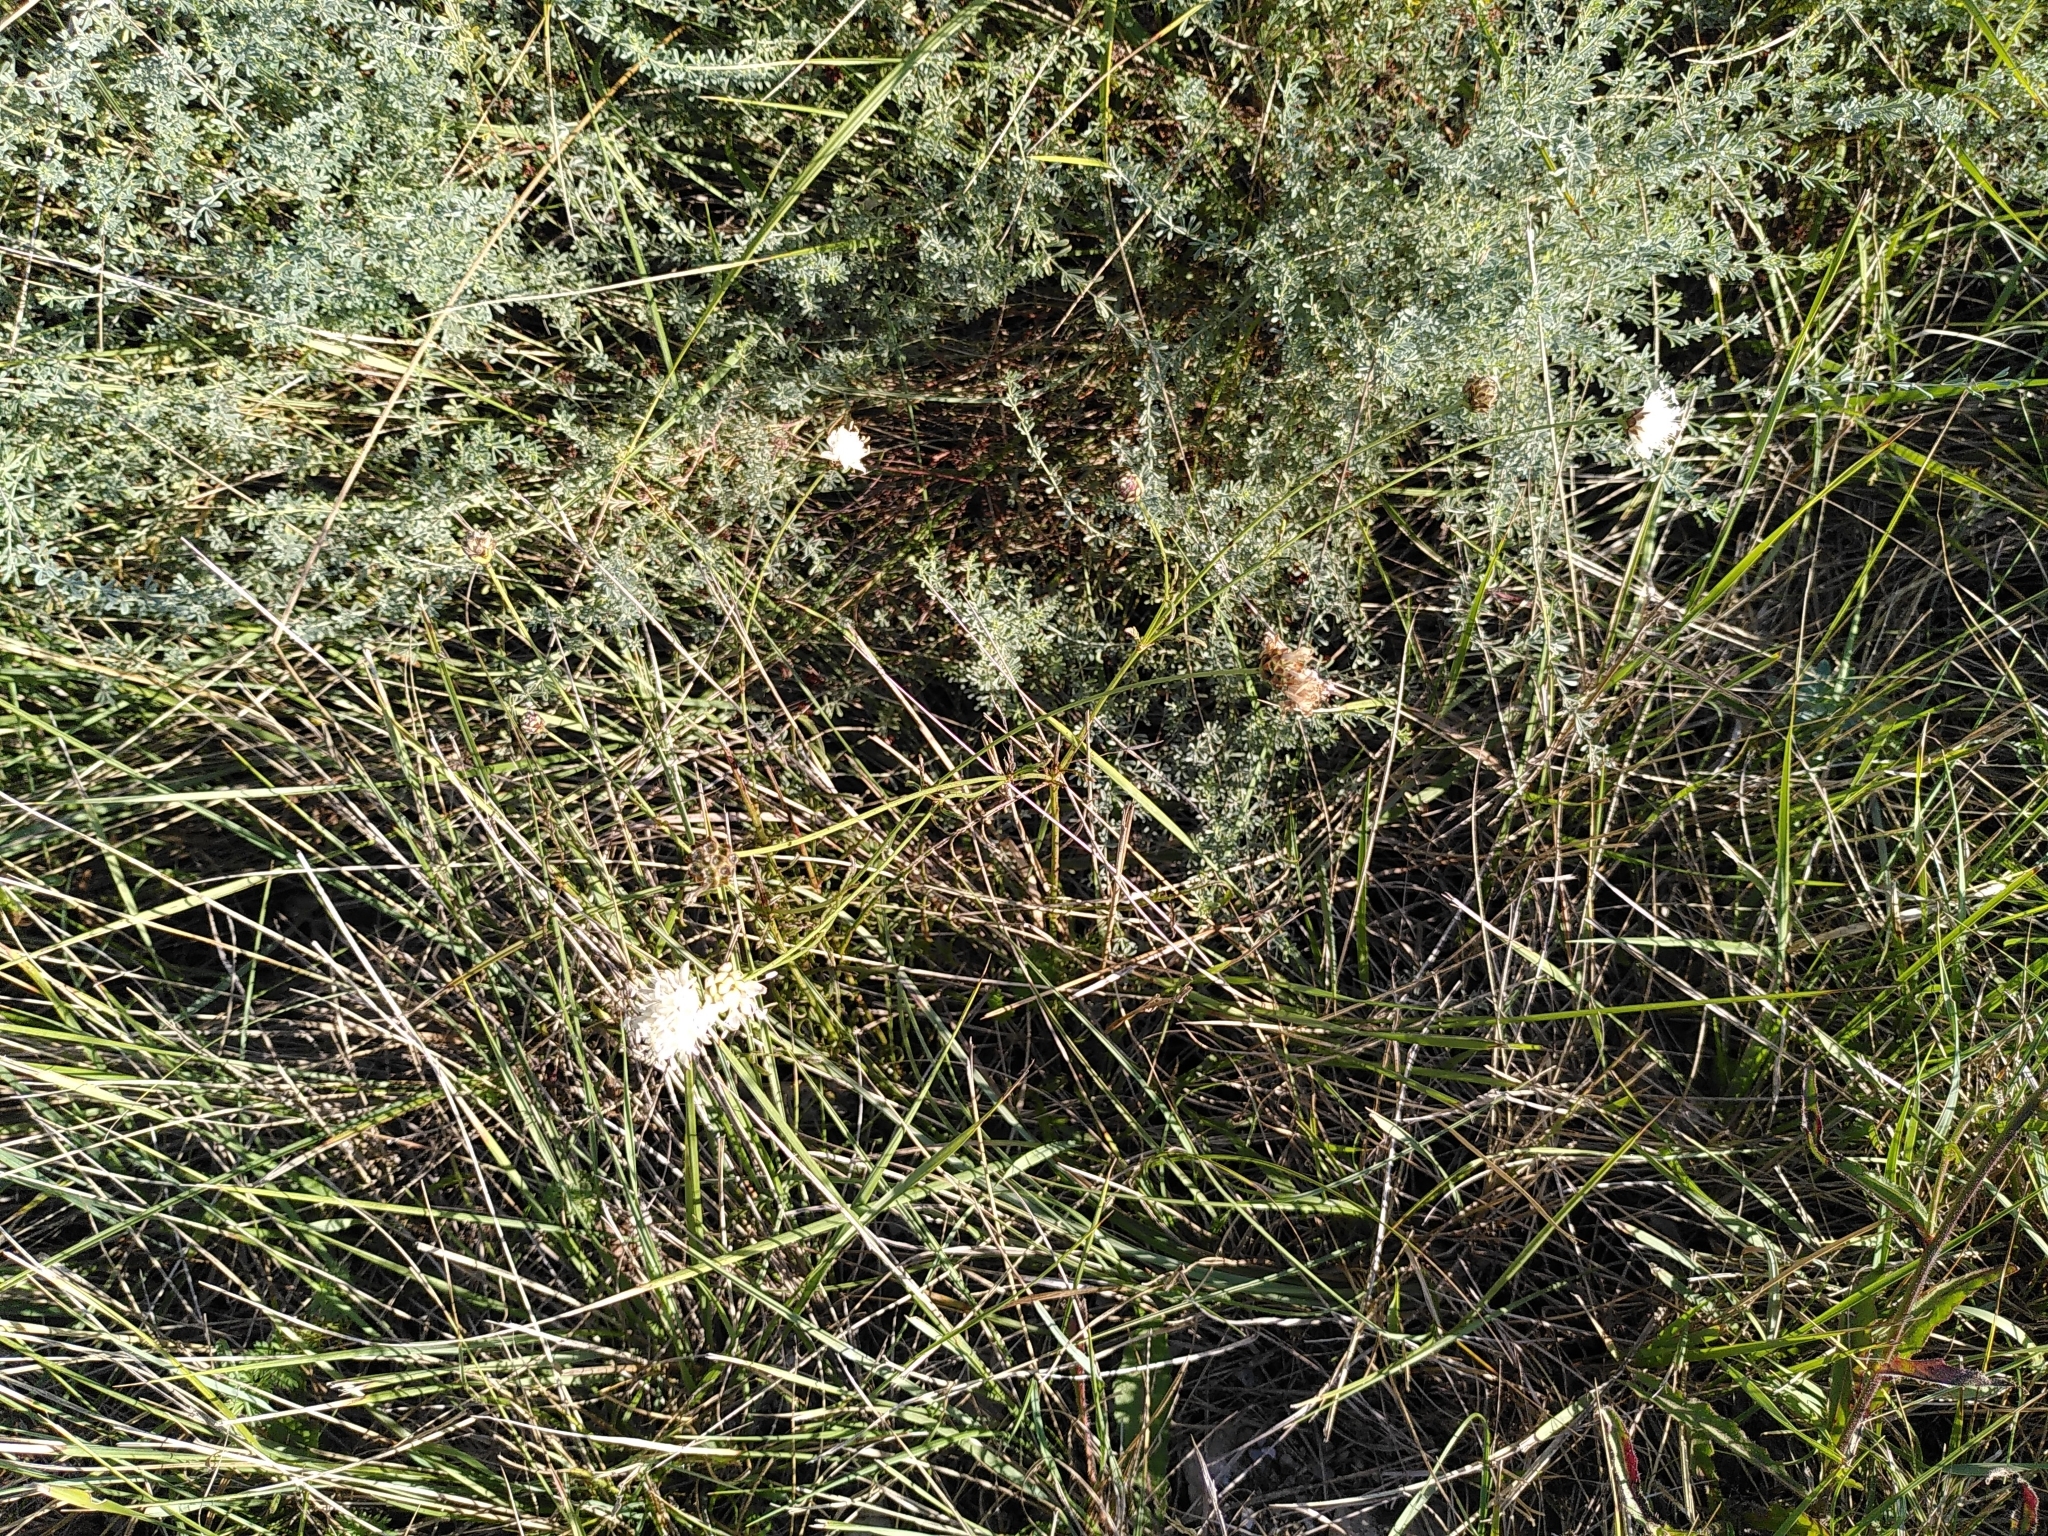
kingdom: Plantae
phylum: Tracheophyta
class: Magnoliopsida
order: Dipsacales
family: Caprifoliaceae
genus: Cephalaria
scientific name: Cephalaria leucantha
